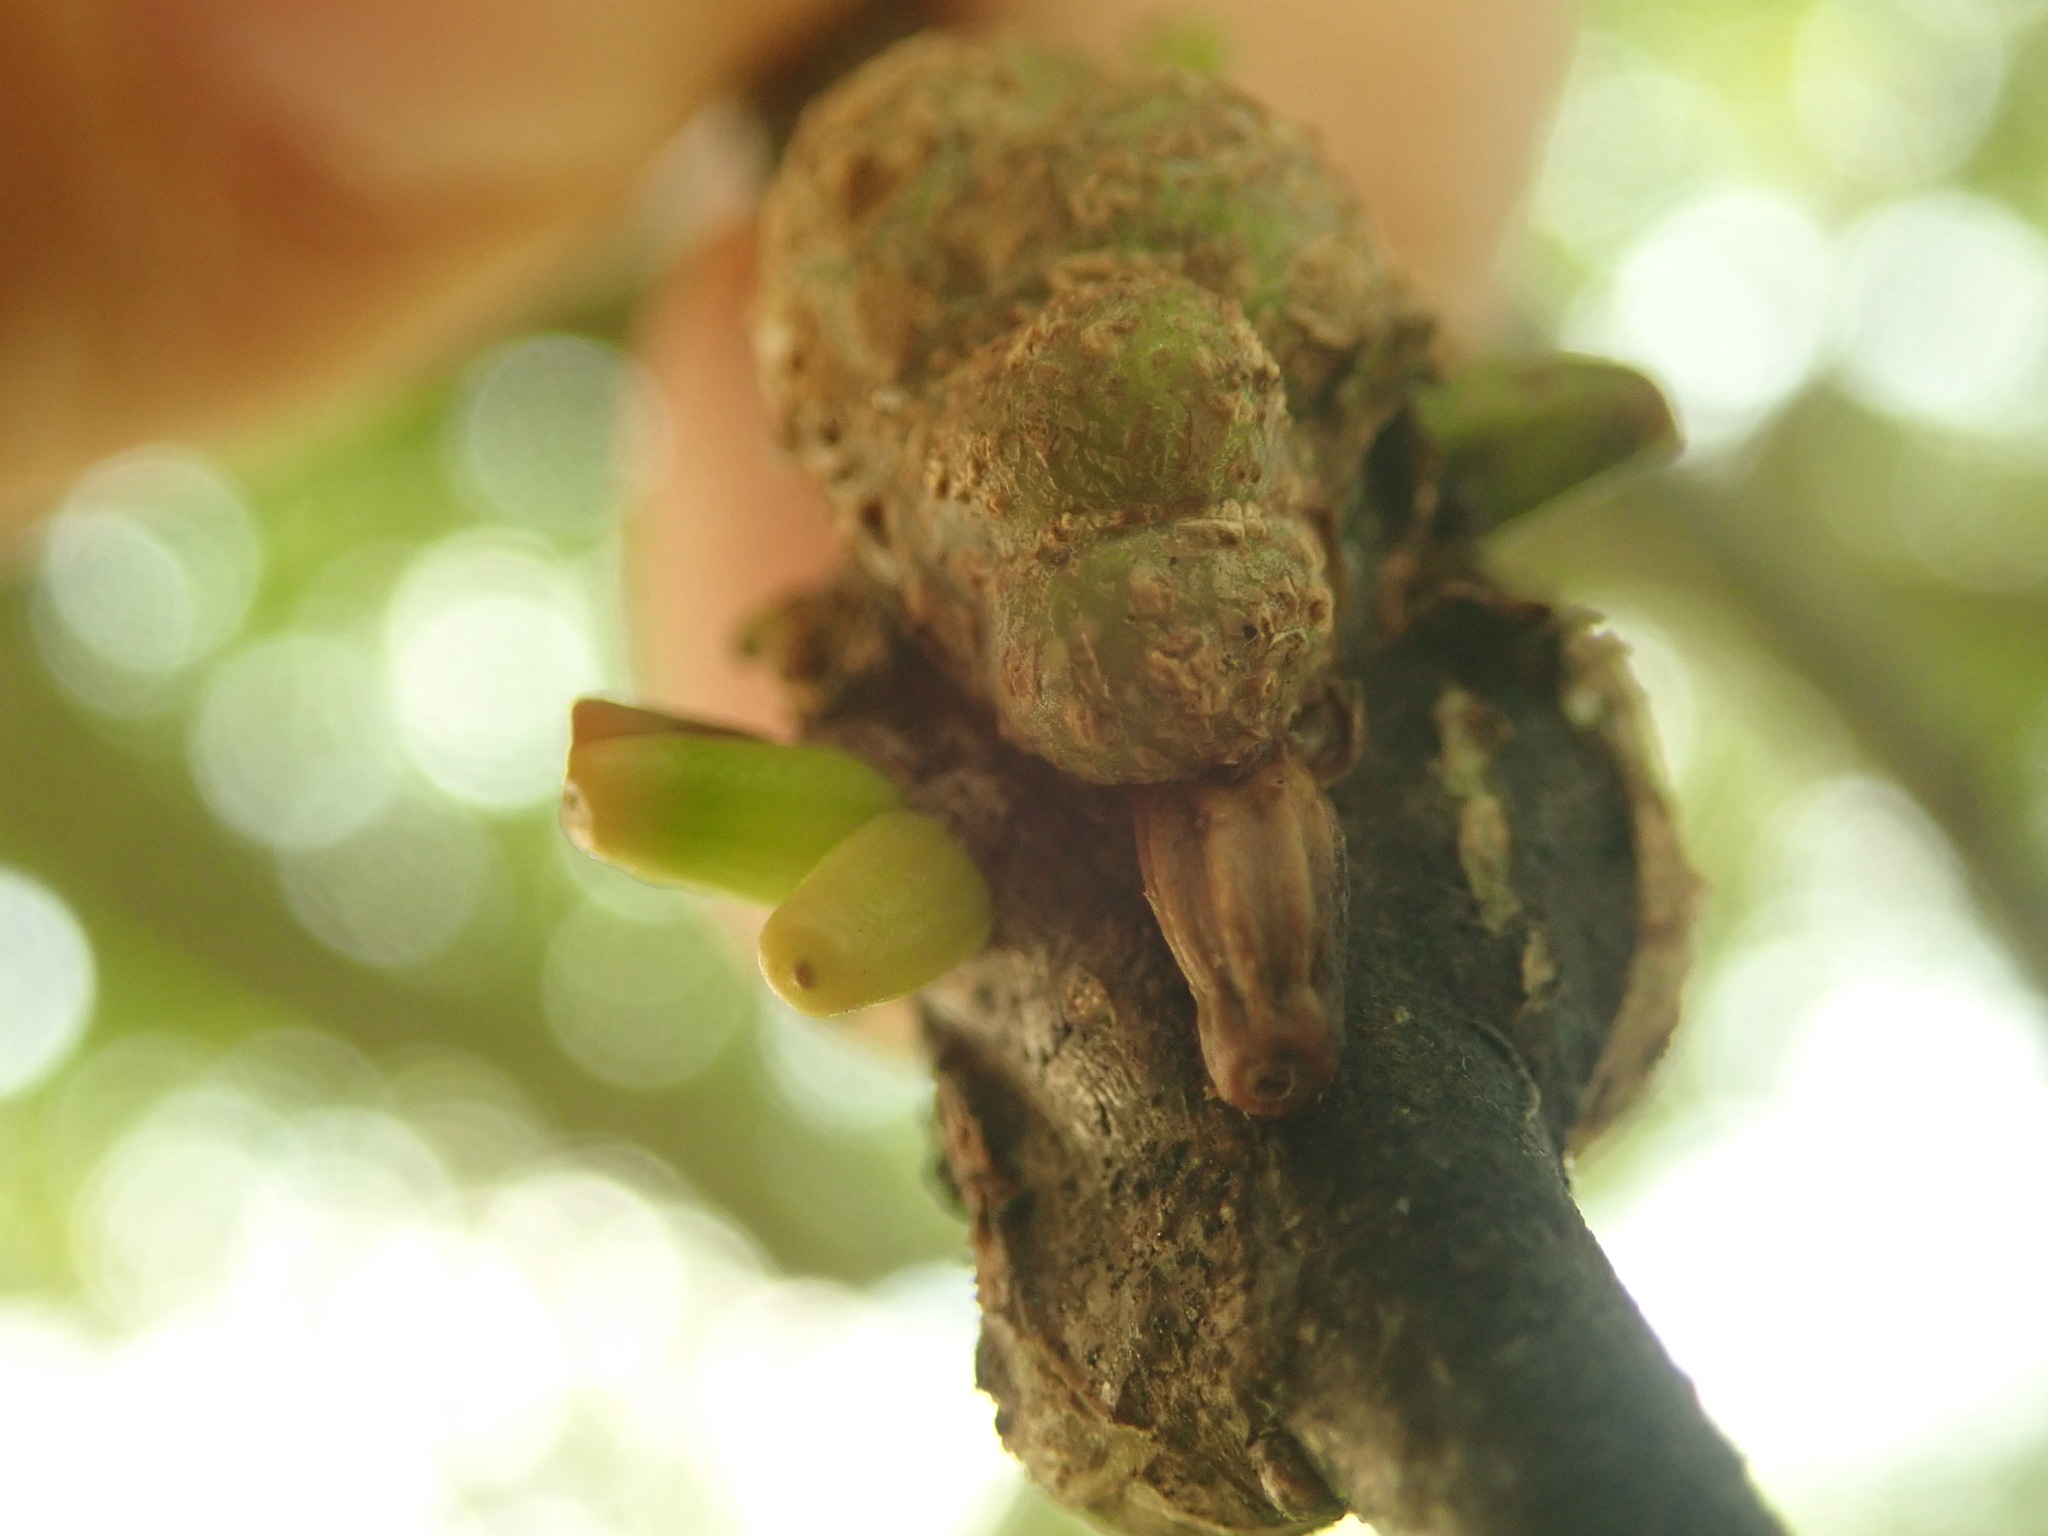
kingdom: Animalia
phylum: Arthropoda
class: Insecta
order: Hymenoptera
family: Cynipidae
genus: Callirhytis
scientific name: Callirhytis
